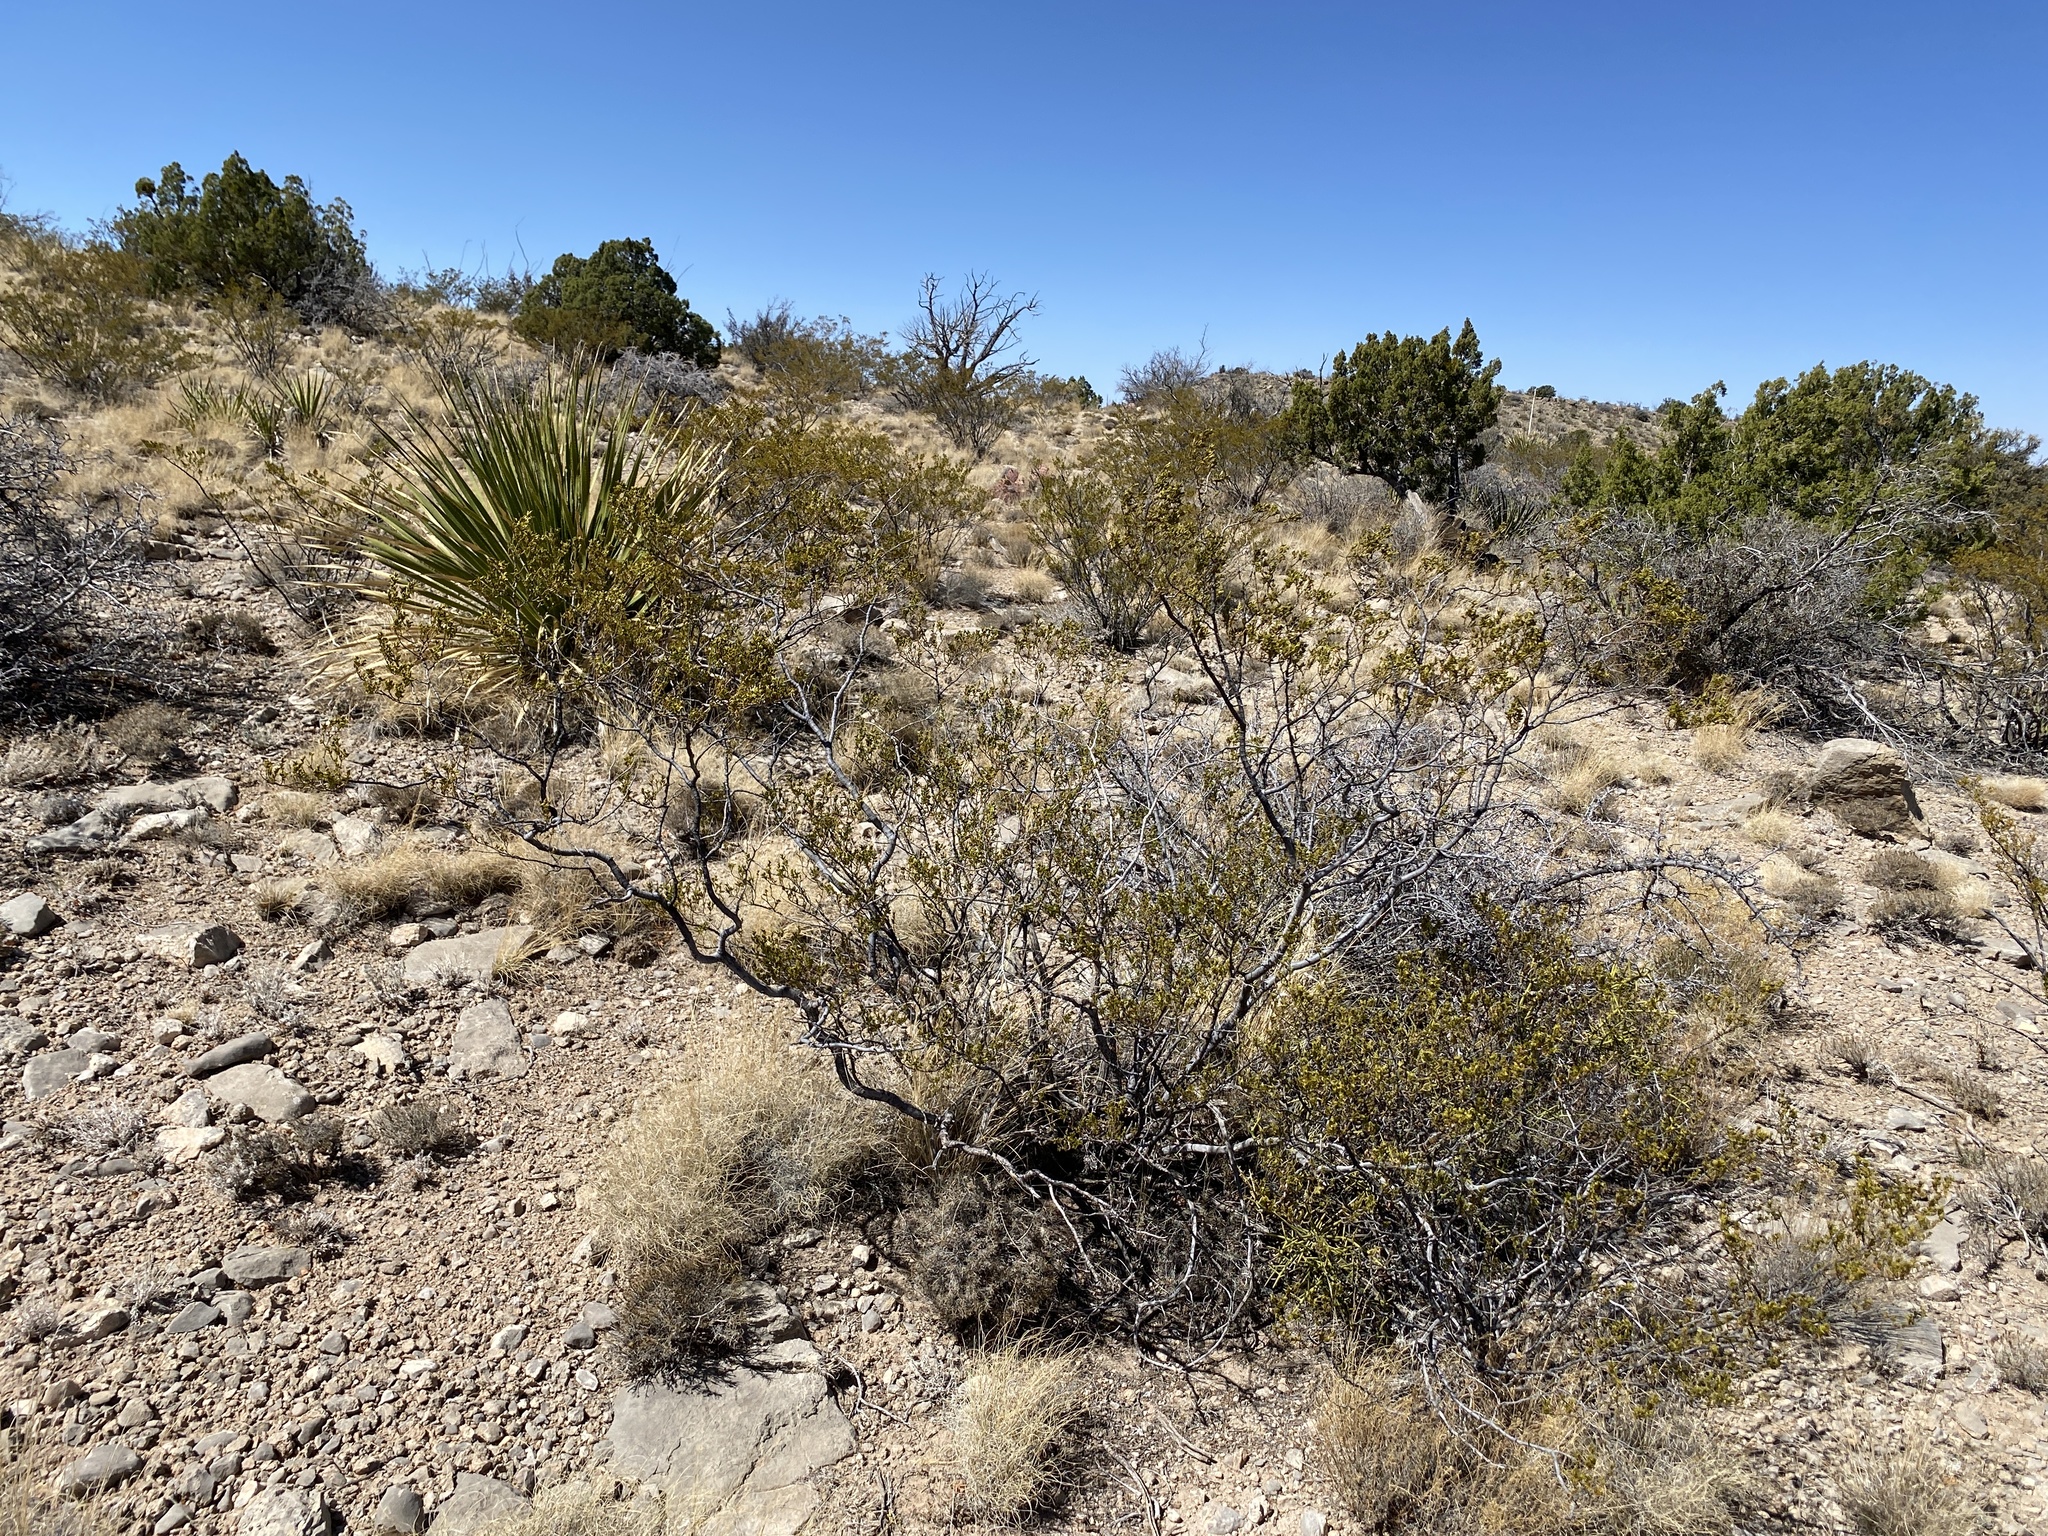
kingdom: Plantae
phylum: Tracheophyta
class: Magnoliopsida
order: Zygophyllales
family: Zygophyllaceae
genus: Larrea
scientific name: Larrea tridentata
